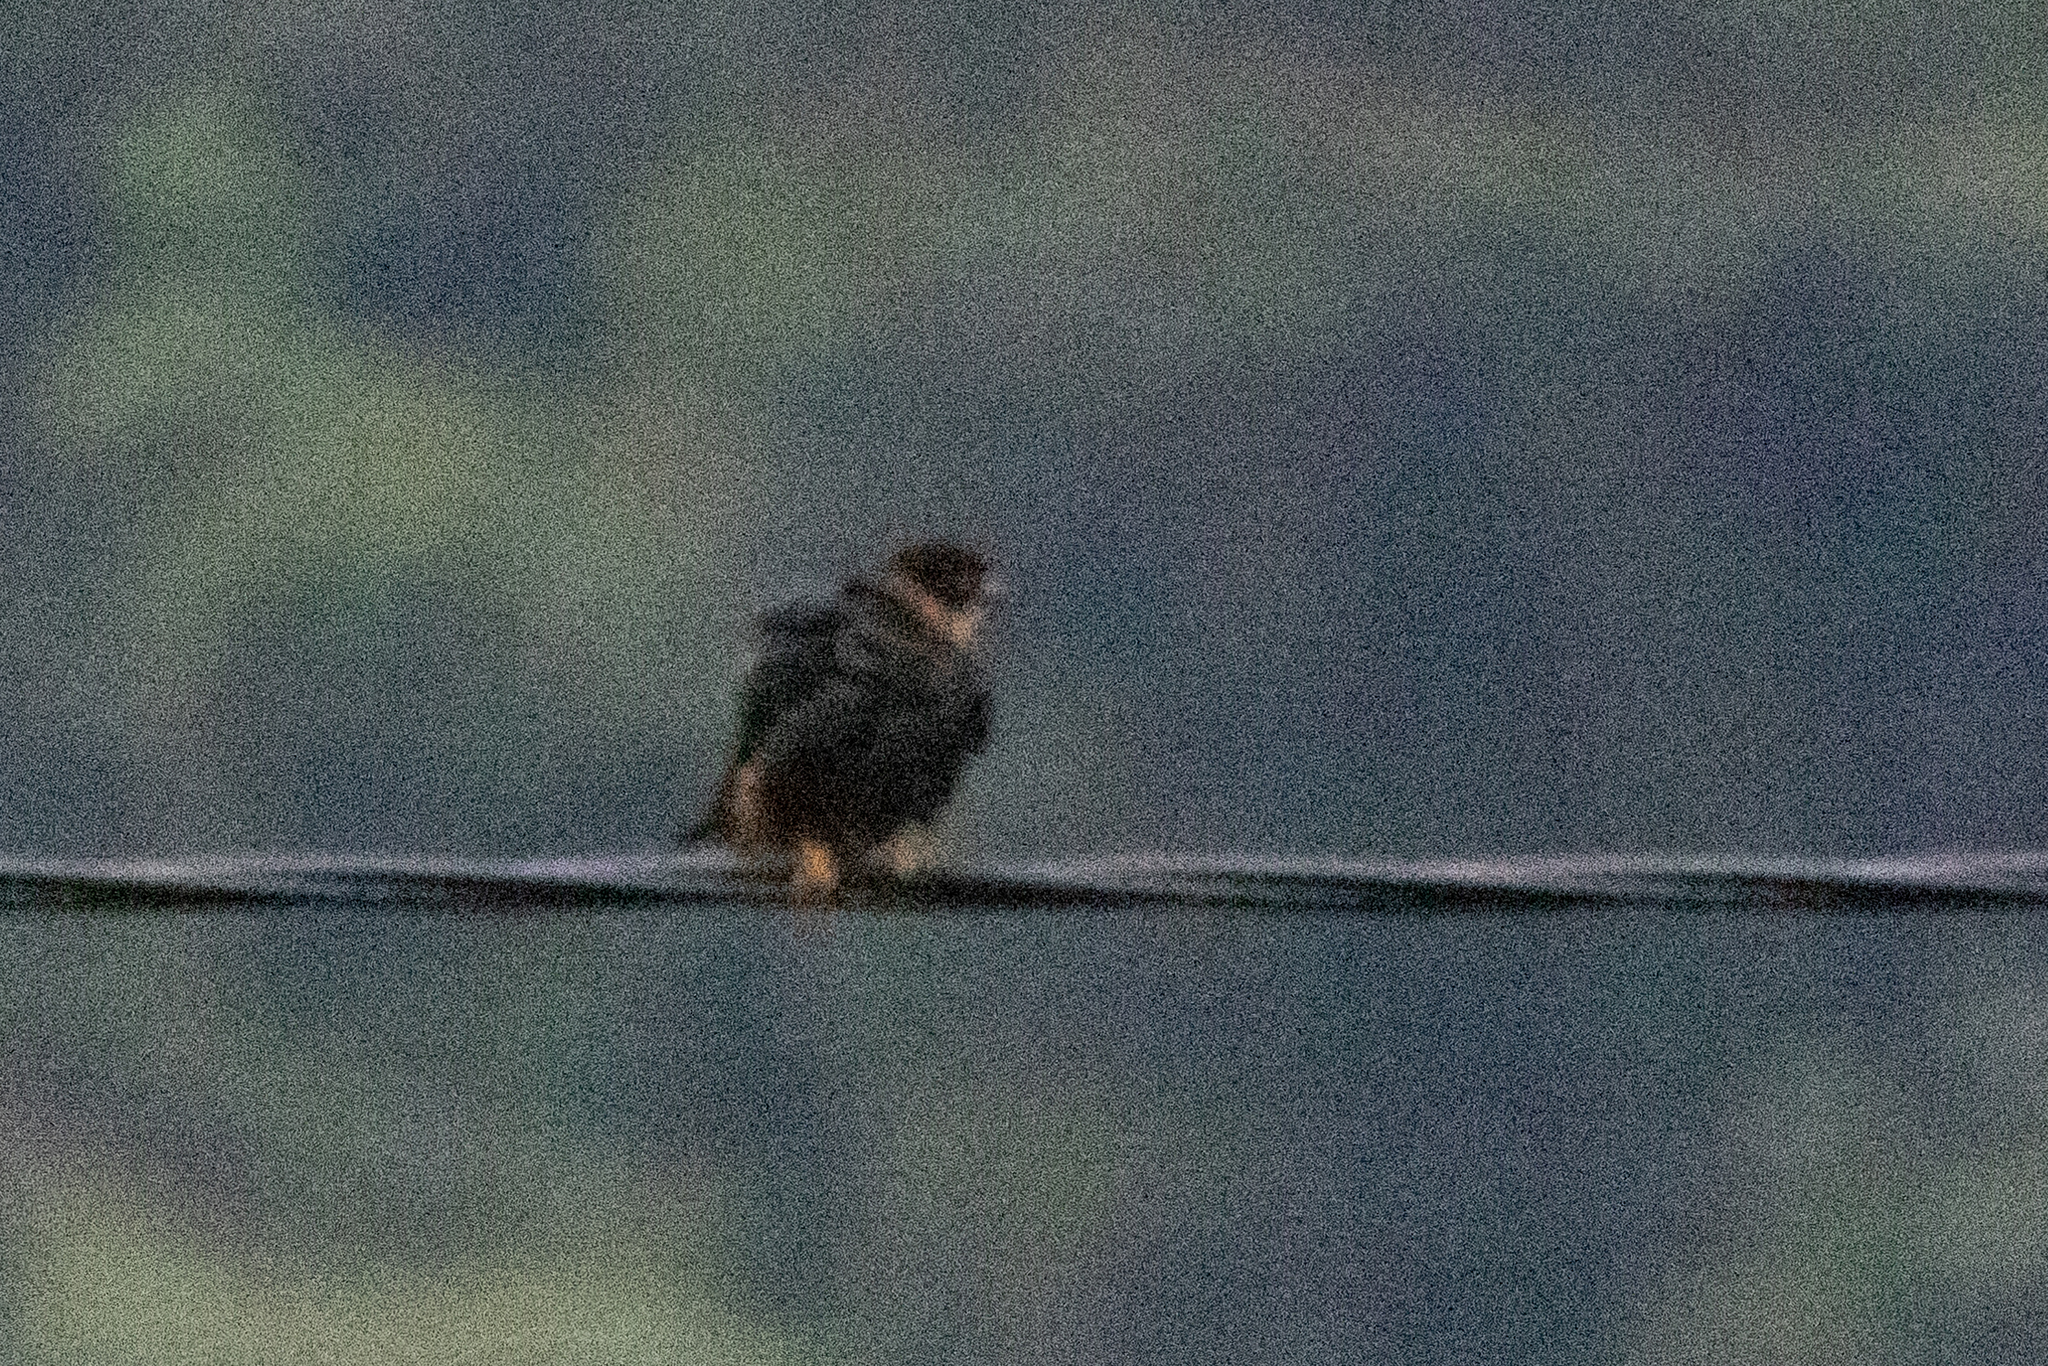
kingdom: Animalia
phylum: Chordata
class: Aves
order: Falconiformes
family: Falconidae
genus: Falco
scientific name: Falco rufigularis
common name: Bat falcon
